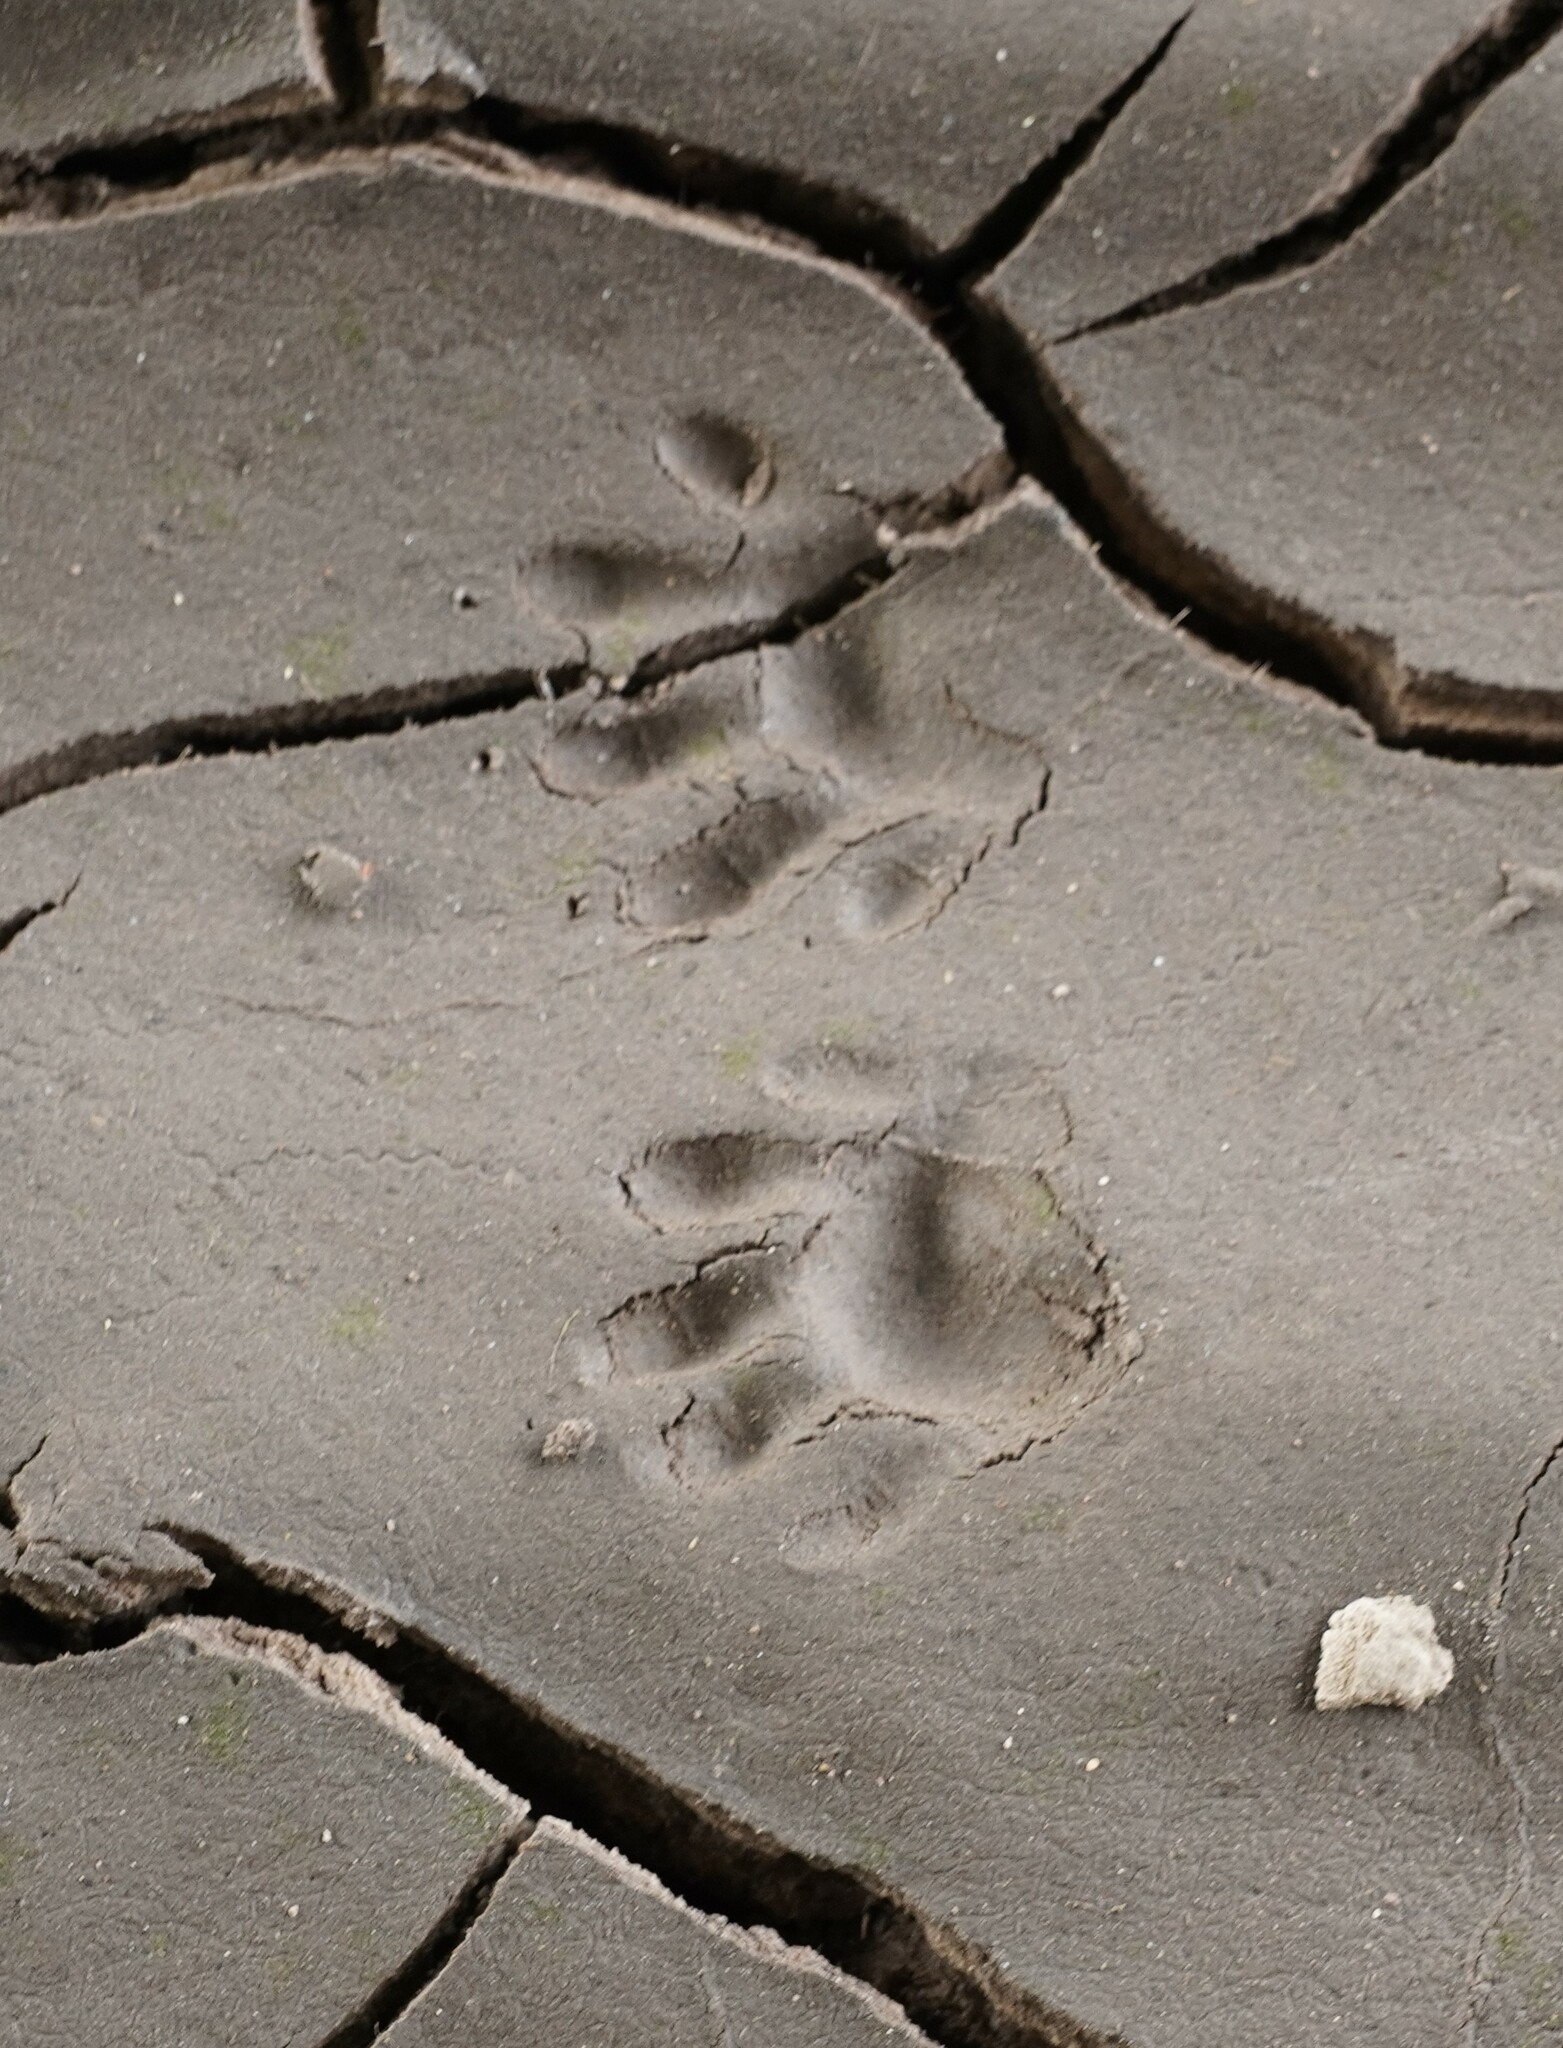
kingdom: Animalia
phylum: Chordata
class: Mammalia
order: Carnivora
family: Procyonidae
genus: Procyon
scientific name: Procyon lotor
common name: Raccoon
